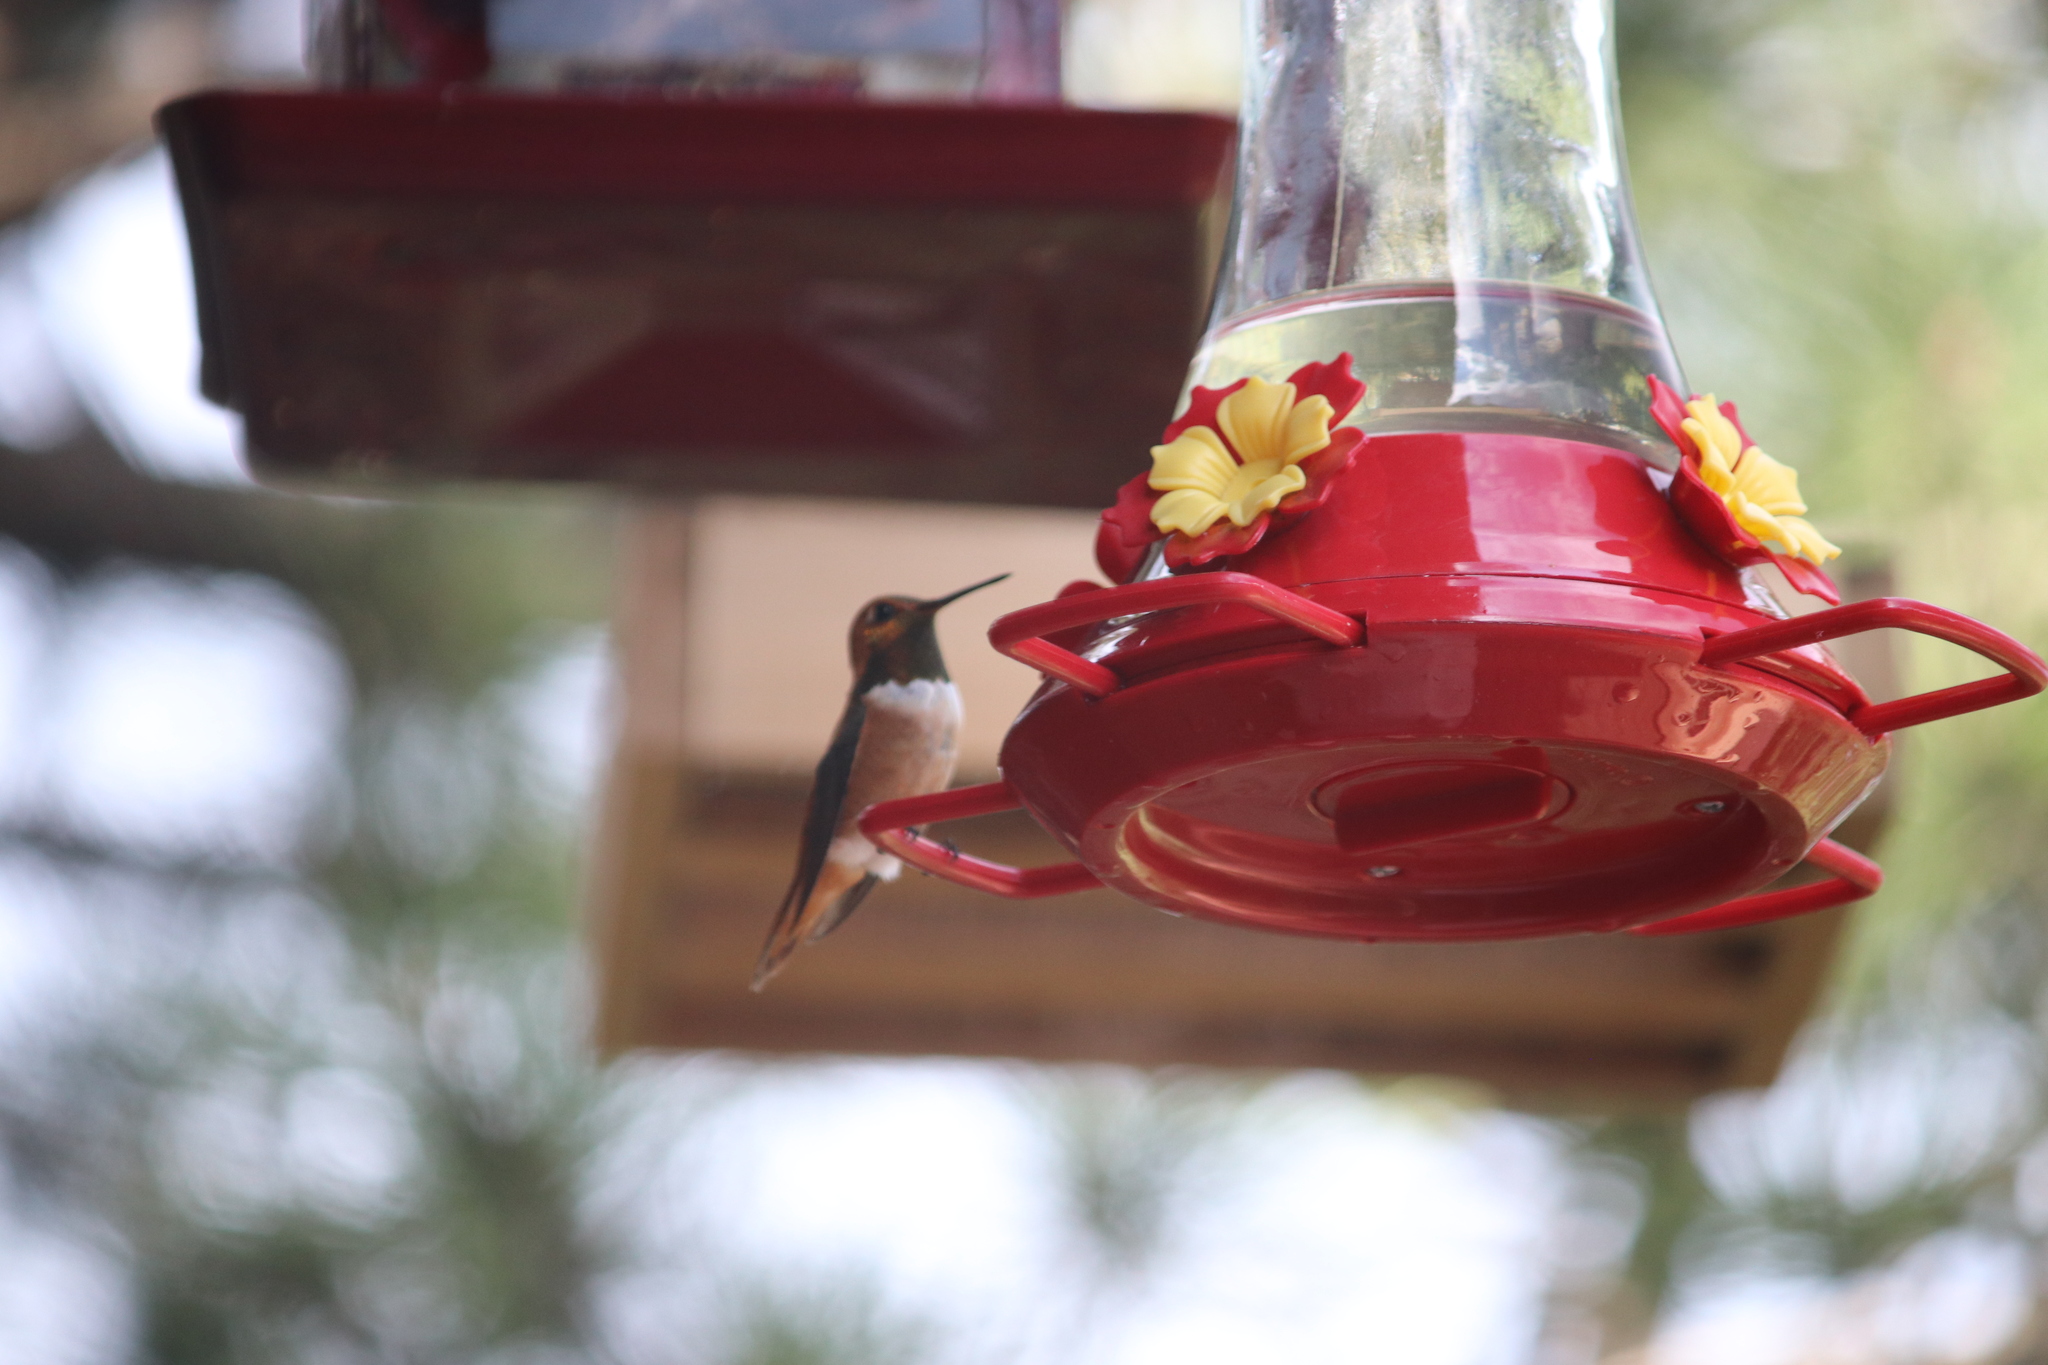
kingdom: Animalia
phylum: Chordata
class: Aves
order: Apodiformes
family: Trochilidae
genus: Selasphorus
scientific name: Selasphorus rufus
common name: Rufous hummingbird
